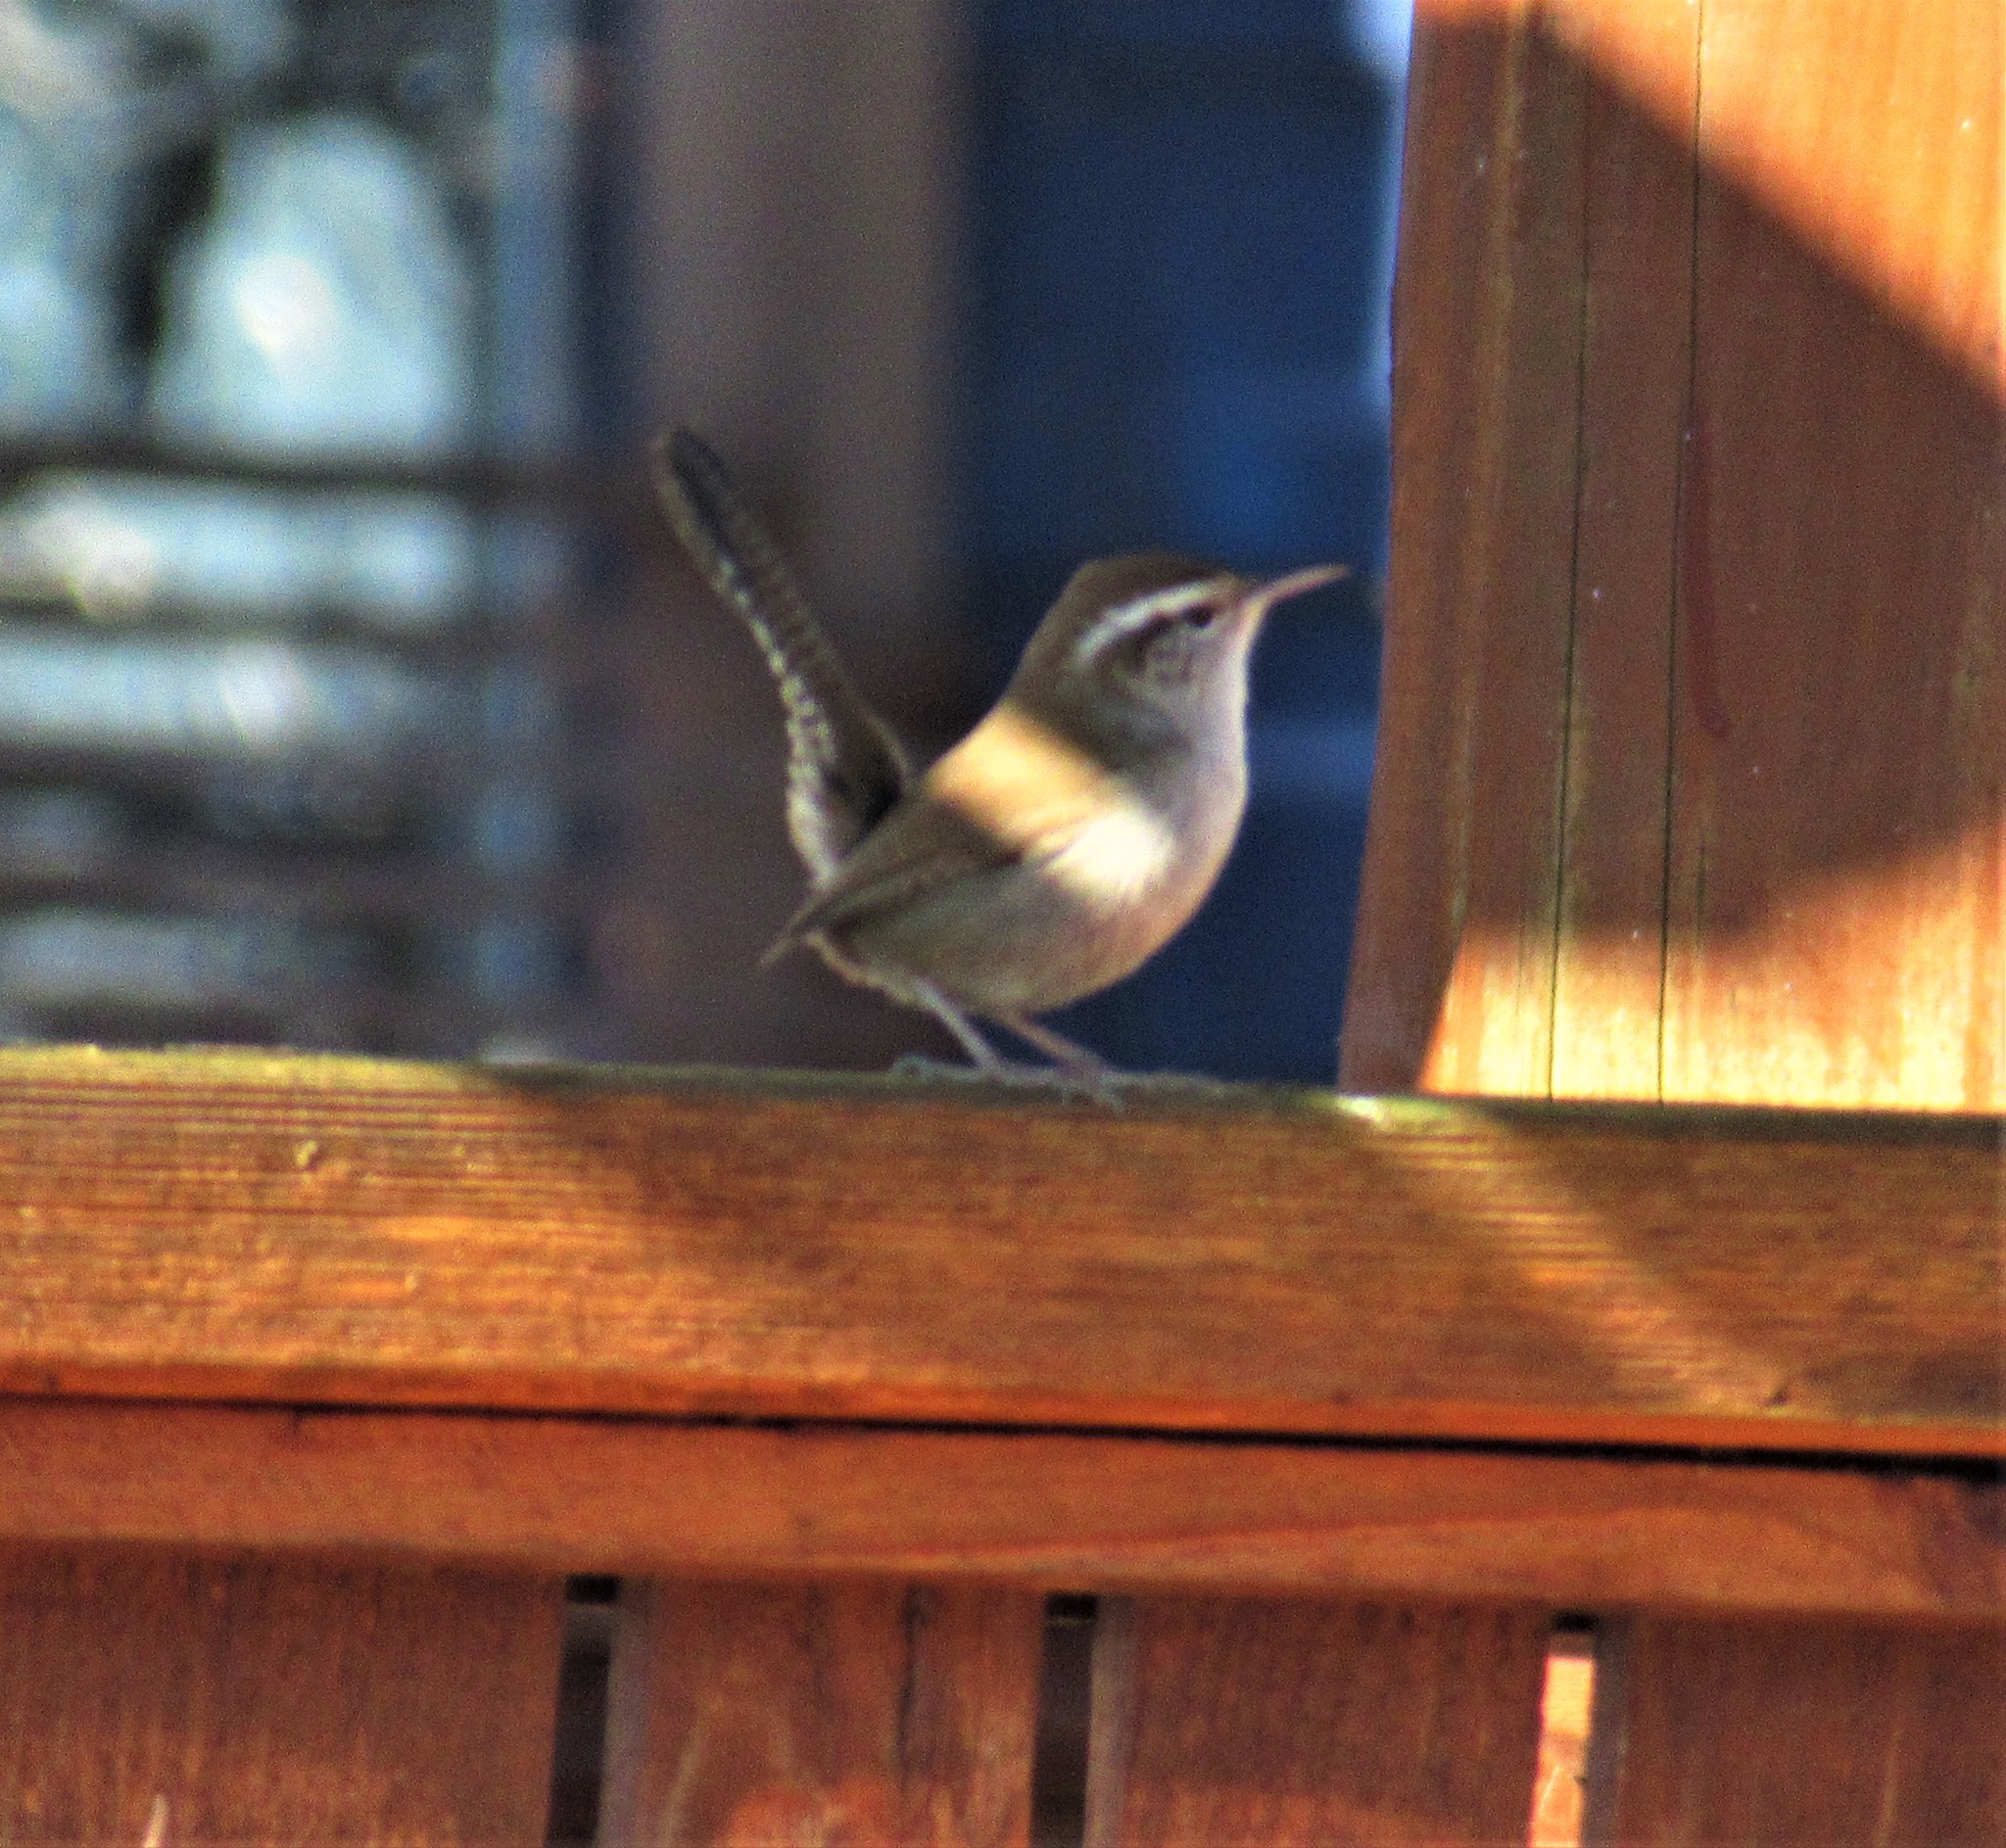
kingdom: Animalia
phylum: Chordata
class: Aves
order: Passeriformes
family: Troglodytidae
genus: Thryomanes
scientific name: Thryomanes bewickii
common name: Bewick's wren
